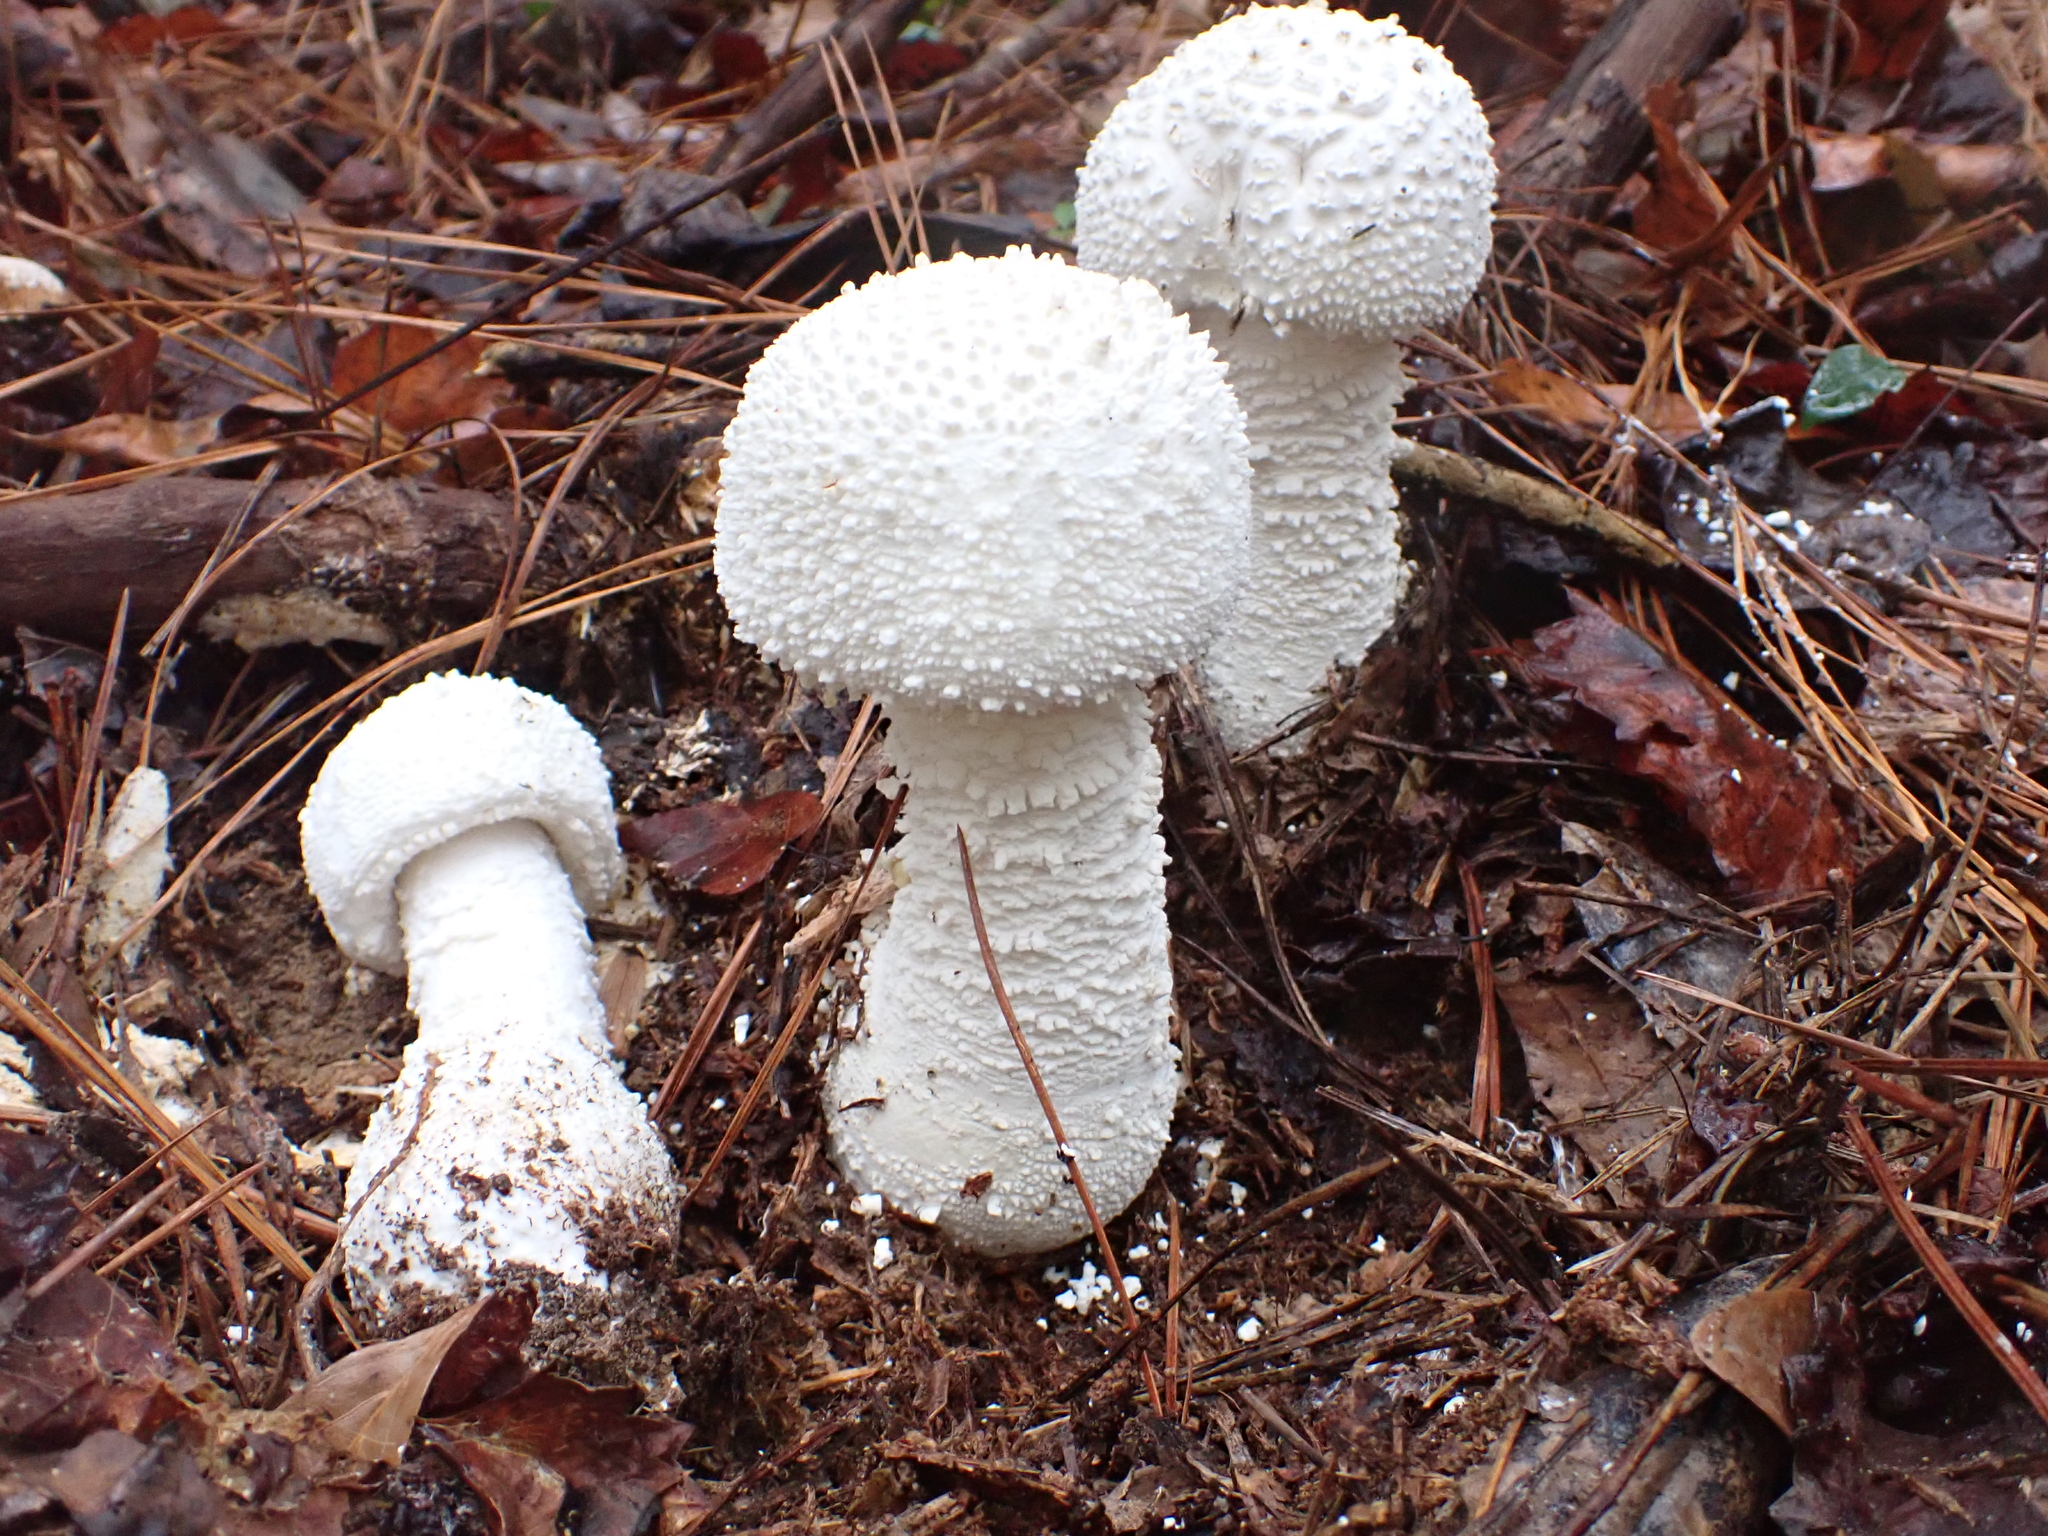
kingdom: Fungi
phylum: Basidiomycota
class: Agaricomycetes
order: Agaricales
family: Amanitaceae
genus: Amanita
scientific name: Amanita polypyramis
